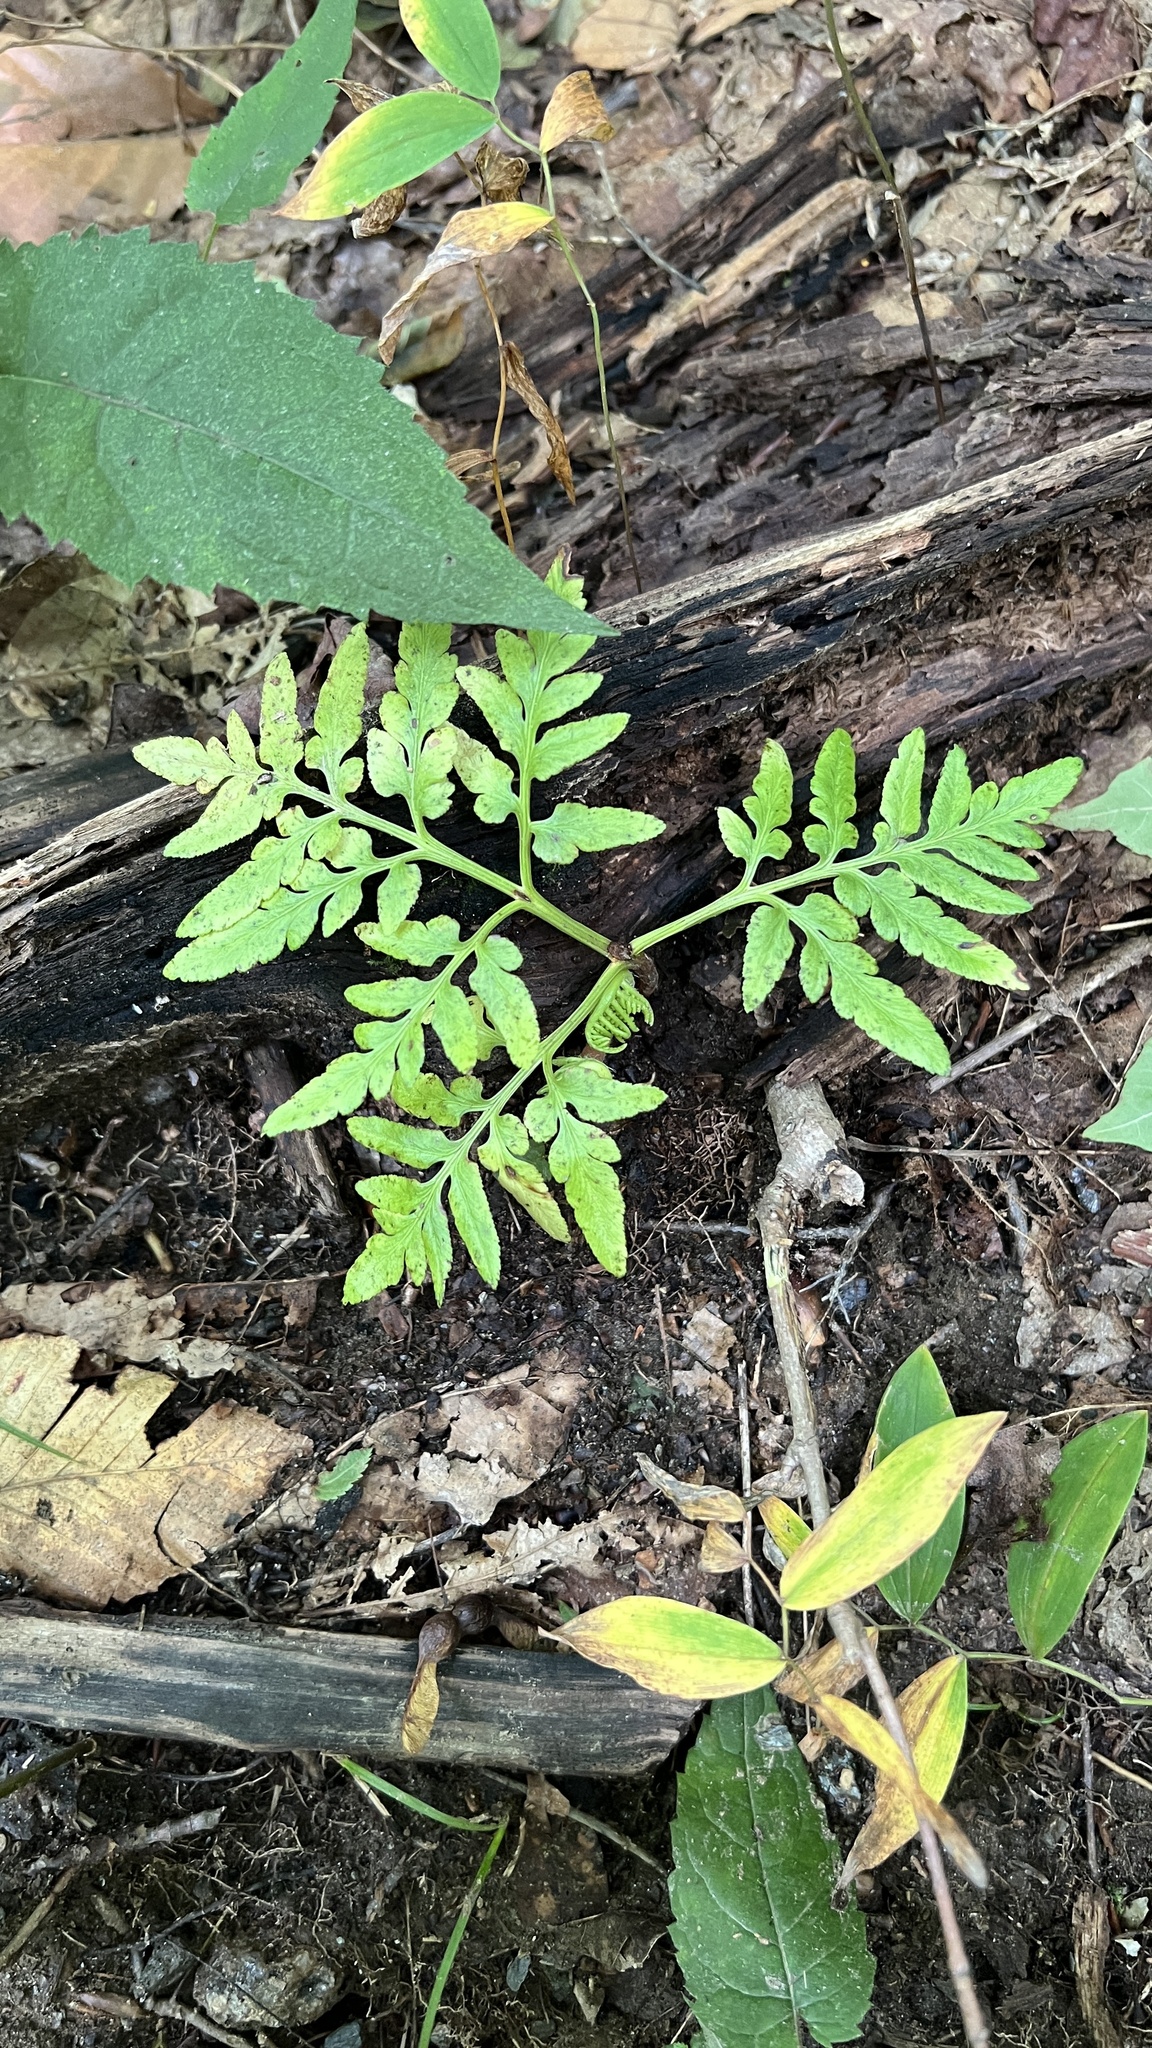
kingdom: Plantae
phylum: Tracheophyta
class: Polypodiopsida
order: Ophioglossales
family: Ophioglossaceae
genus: Sceptridium
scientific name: Sceptridium dissectum
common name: Cut-leaved grapefern
